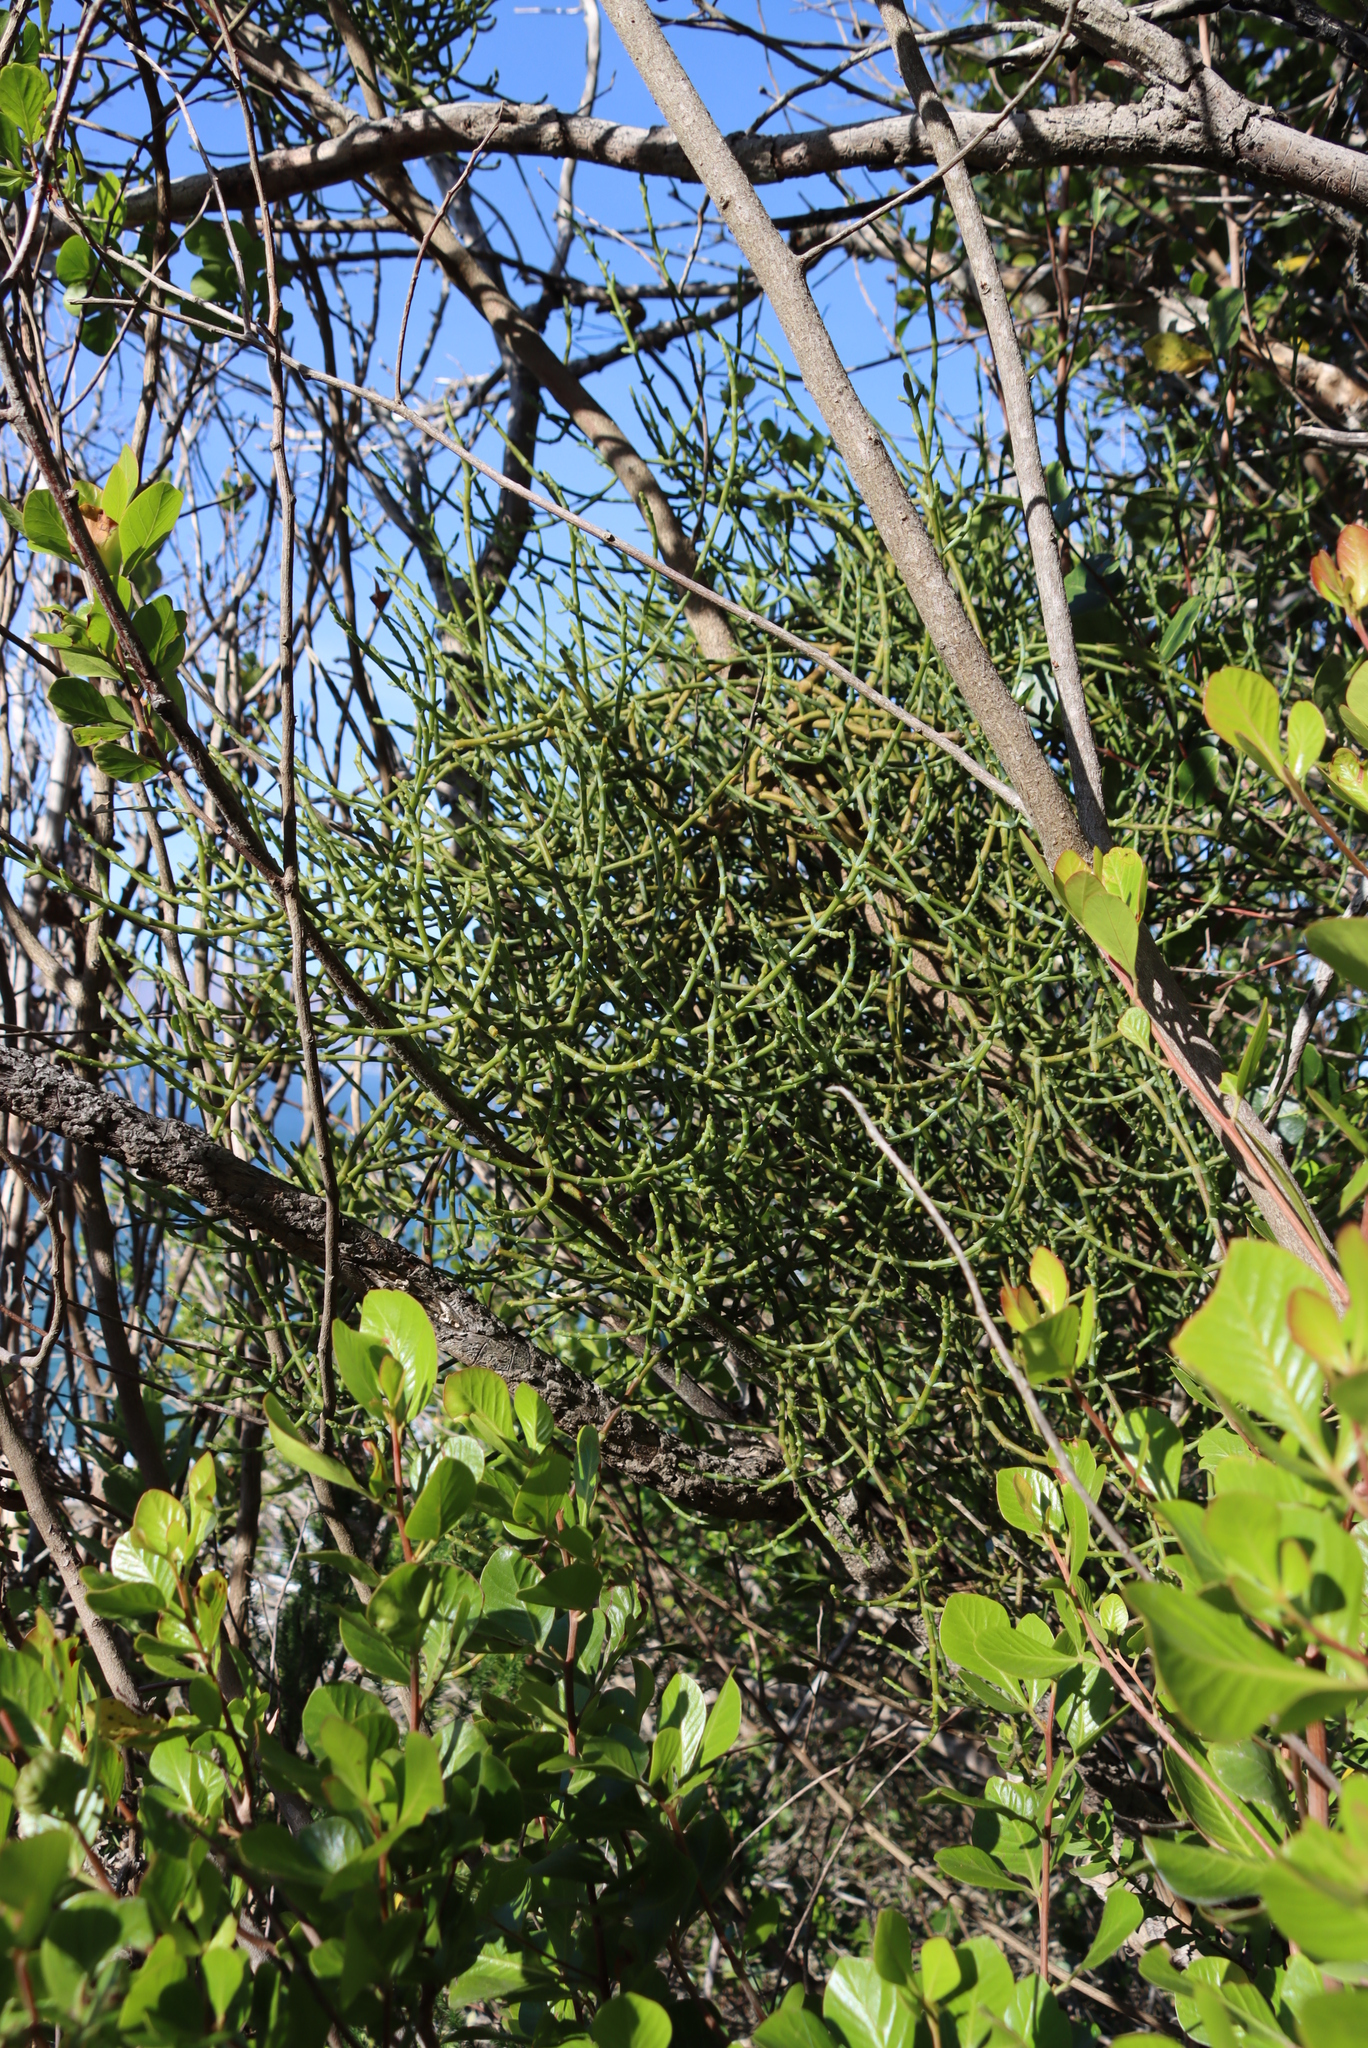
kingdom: Plantae
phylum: Tracheophyta
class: Magnoliopsida
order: Santalales
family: Viscaceae
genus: Viscum
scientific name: Viscum capense
